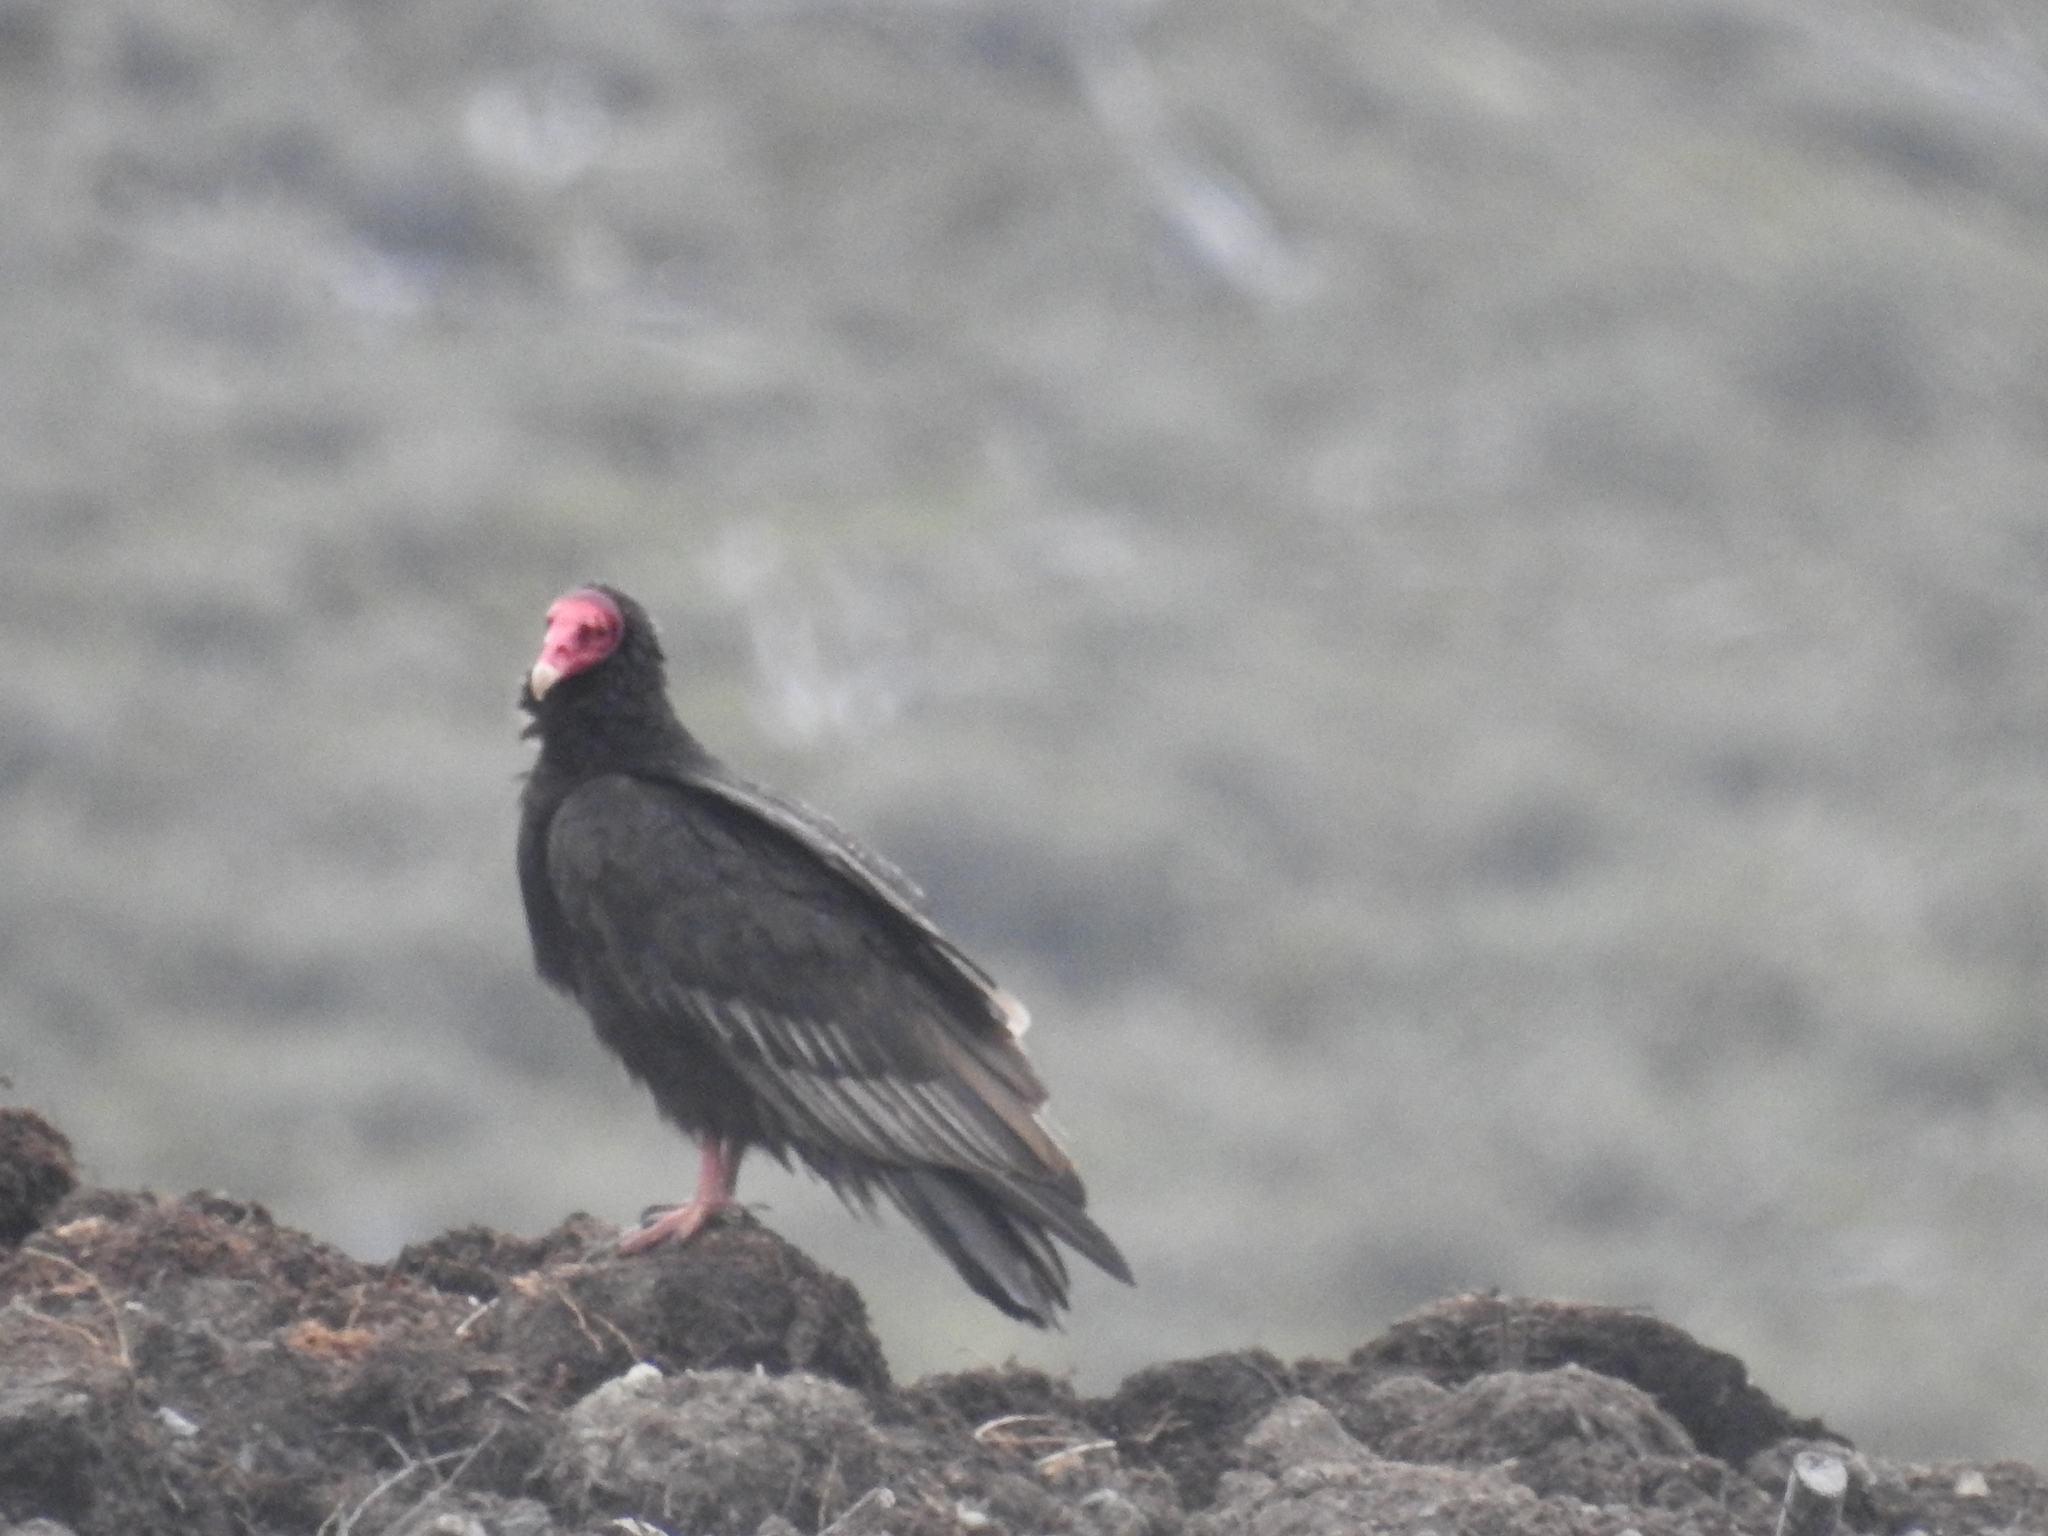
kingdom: Animalia
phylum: Chordata
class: Aves
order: Accipitriformes
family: Cathartidae
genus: Cathartes
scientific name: Cathartes aura
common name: Turkey vulture
